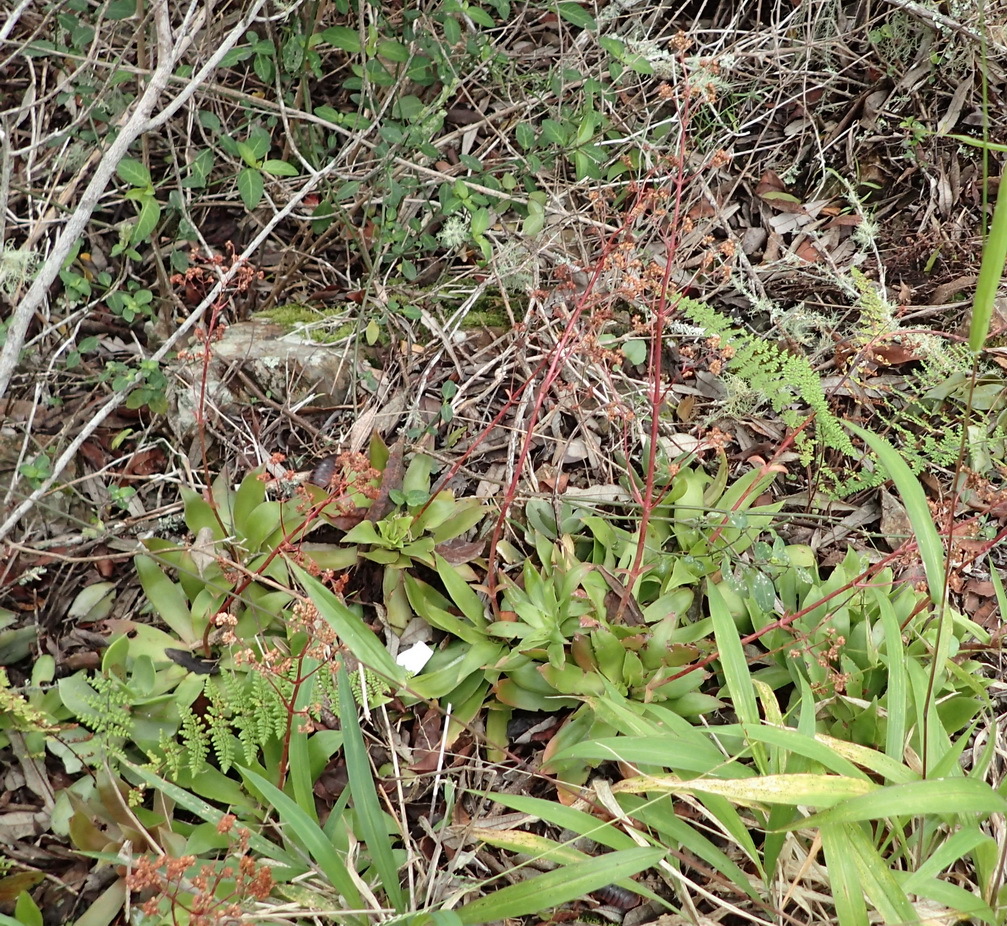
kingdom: Plantae
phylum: Tracheophyta
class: Magnoliopsida
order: Saxifragales
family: Crassulaceae
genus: Crassula
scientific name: Crassula orbicularis
